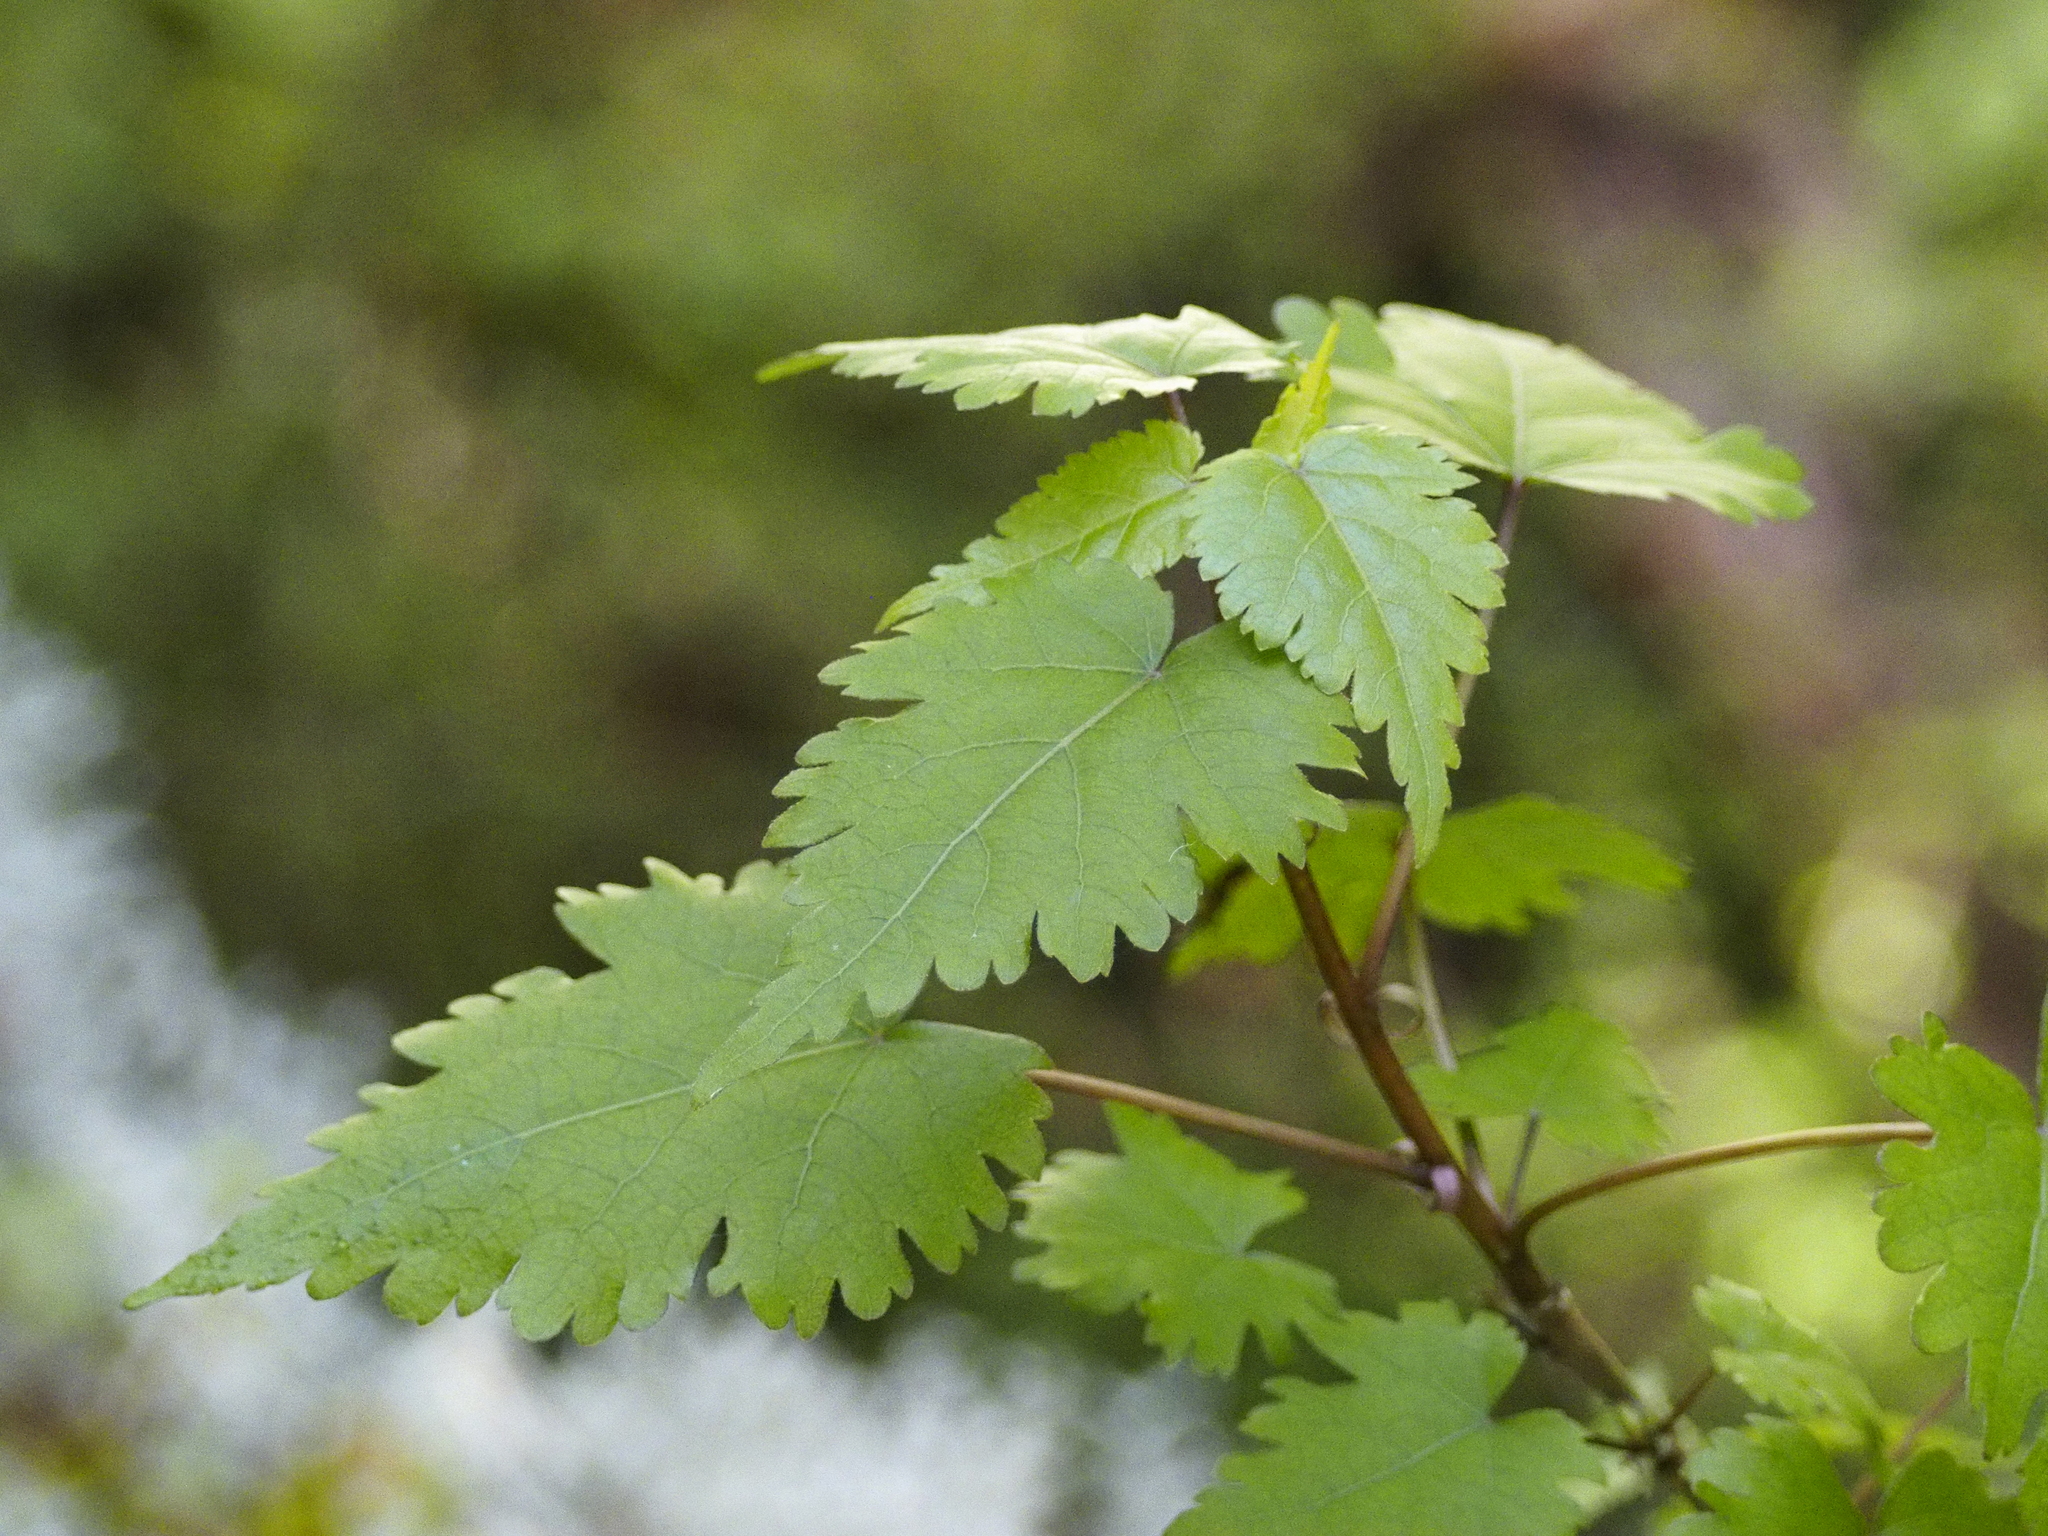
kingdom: Plantae
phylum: Tracheophyta
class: Magnoliopsida
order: Malvales
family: Malvaceae
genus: Hoheria
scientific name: Hoheria glabrata
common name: Mountain-ribbon
